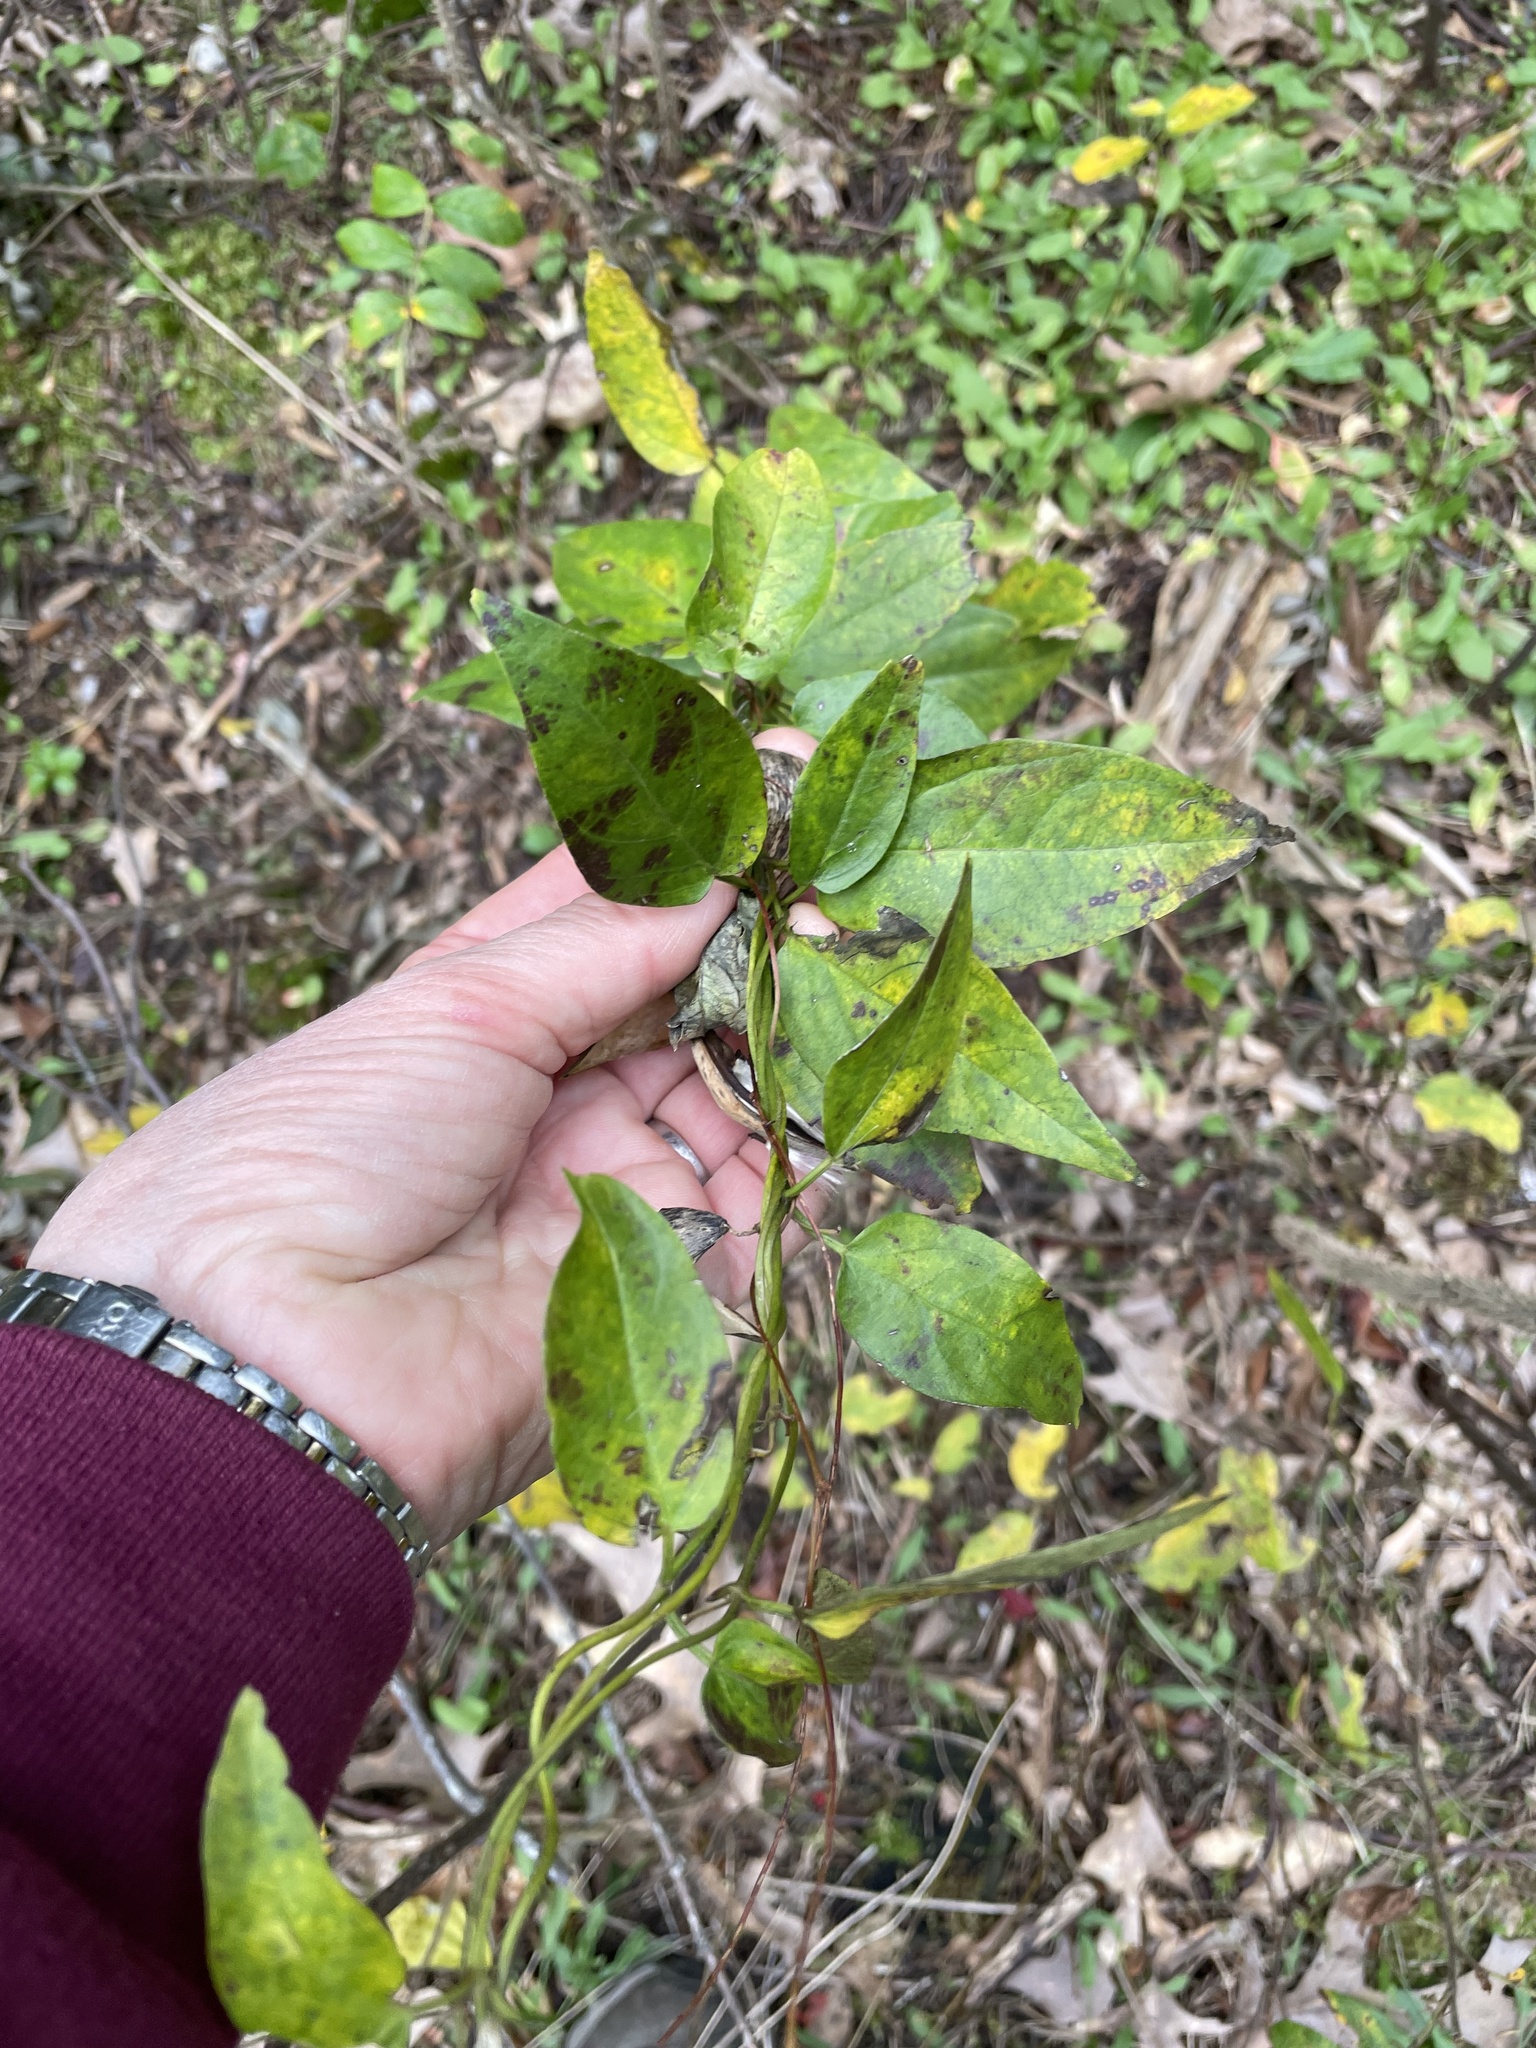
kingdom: Plantae
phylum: Tracheophyta
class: Magnoliopsida
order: Gentianales
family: Apocynaceae
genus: Vincetoxicum
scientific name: Vincetoxicum nigrum
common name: Black swallow-wort
